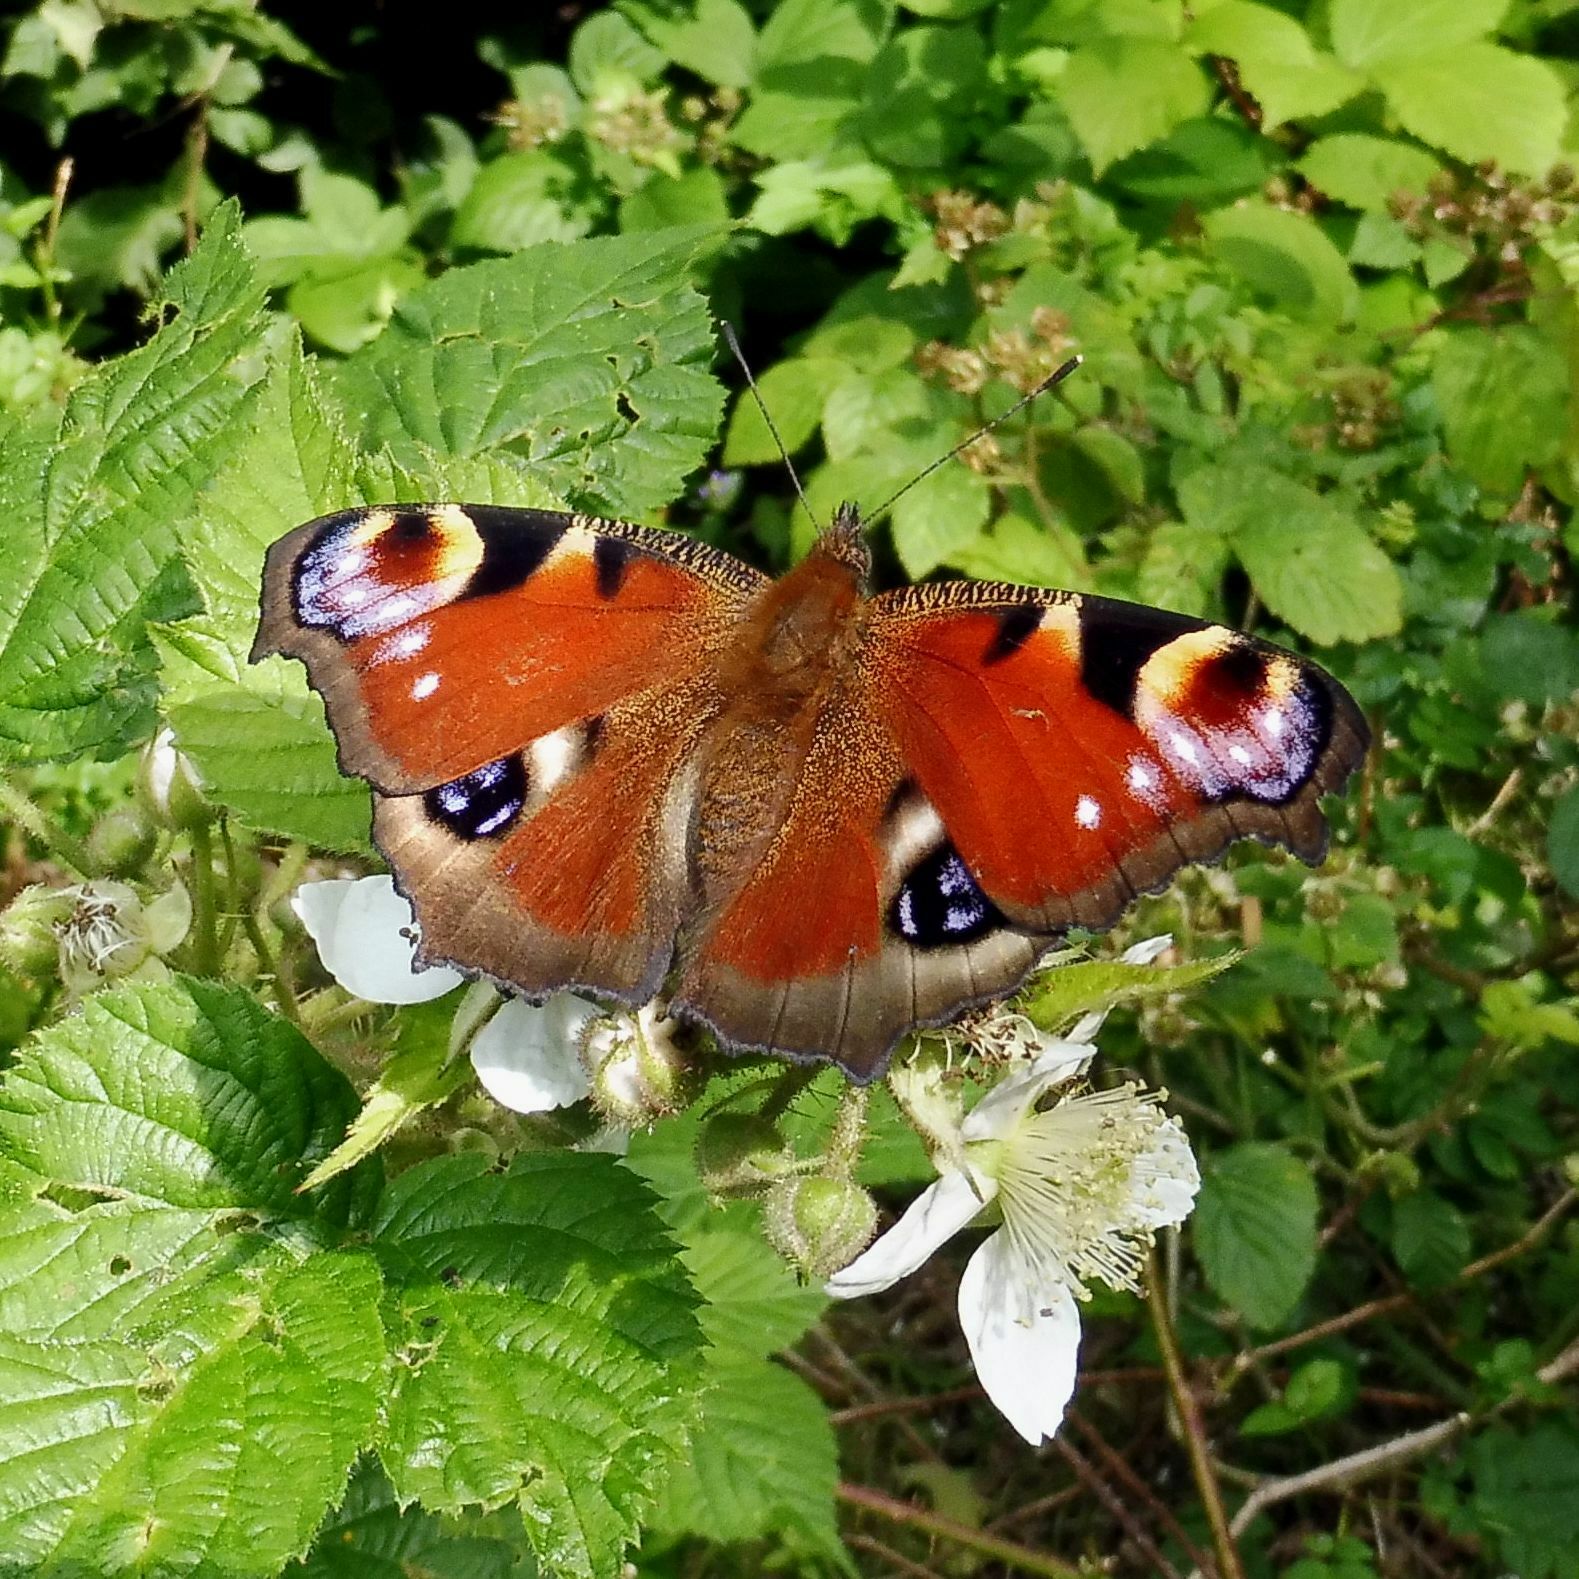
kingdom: Animalia
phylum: Arthropoda
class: Insecta
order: Lepidoptera
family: Nymphalidae
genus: Aglais
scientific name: Aglais io
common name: Peacock
